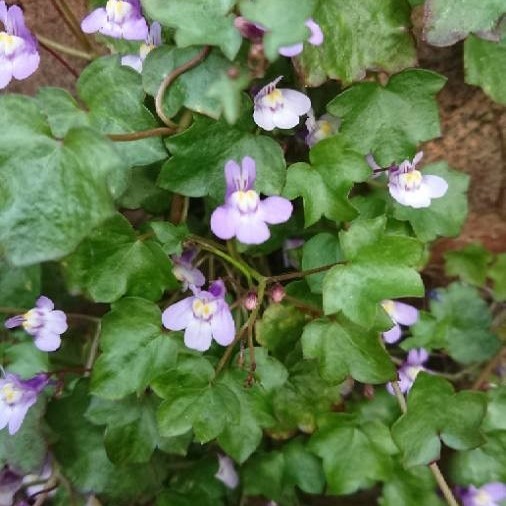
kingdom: Plantae
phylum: Tracheophyta
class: Magnoliopsida
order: Lamiales
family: Plantaginaceae
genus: Cymbalaria
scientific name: Cymbalaria muralis
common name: Ivy-leaved toadflax
